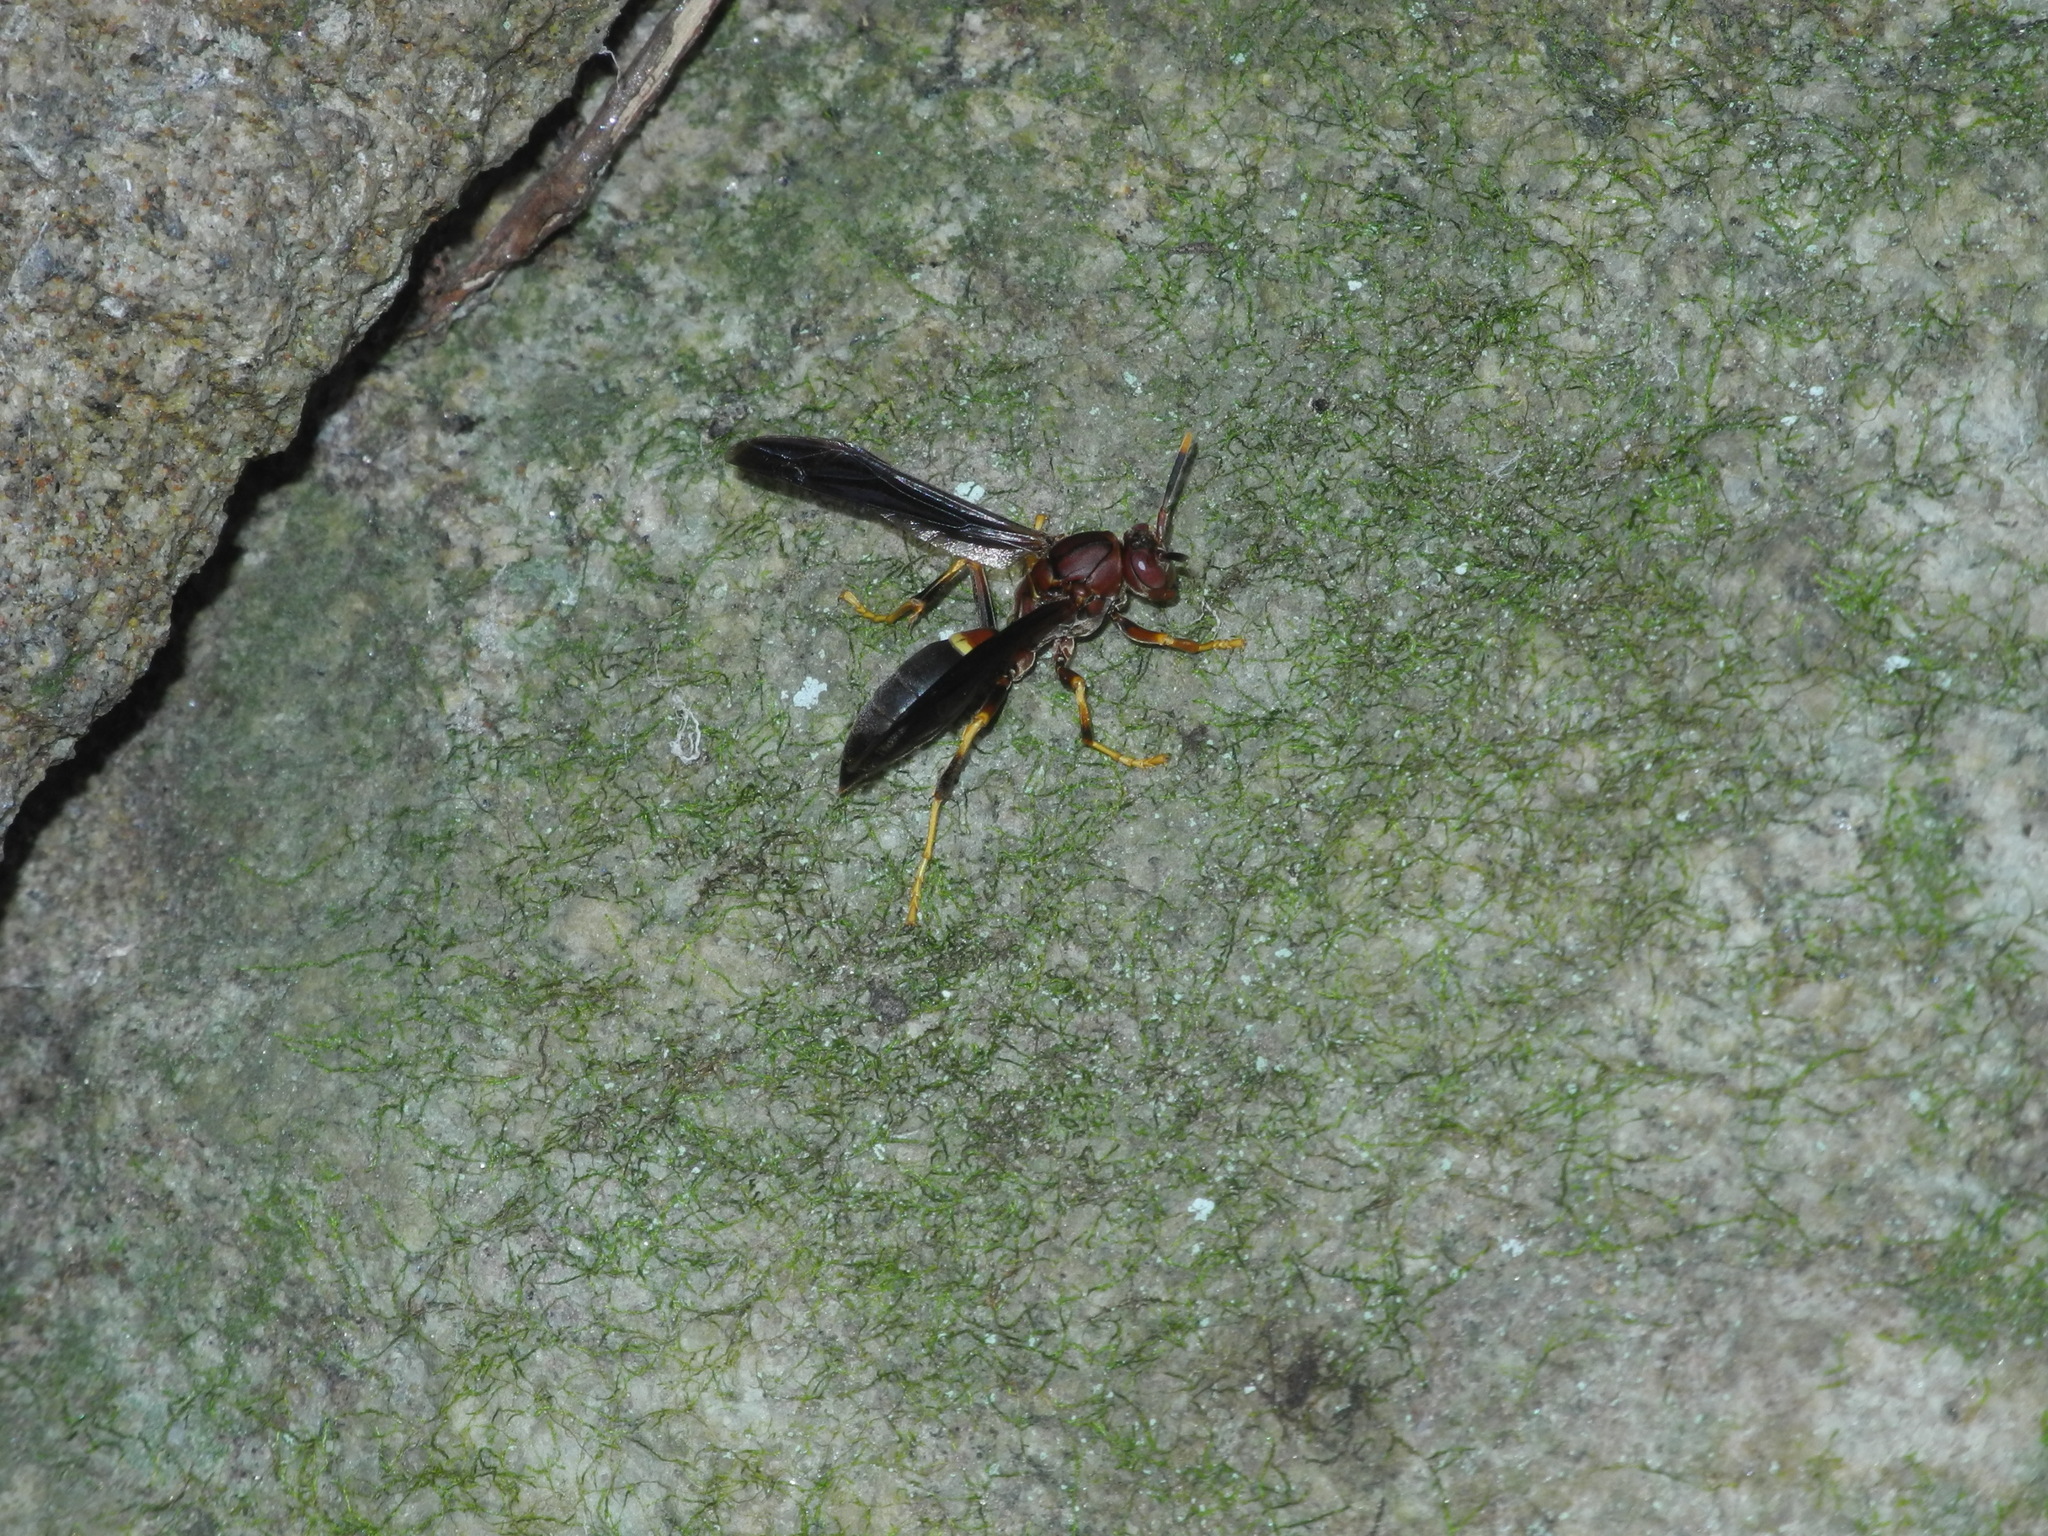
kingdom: Animalia
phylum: Arthropoda
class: Insecta
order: Hymenoptera
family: Eumenidae
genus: Polistes
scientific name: Polistes annularis
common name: Ringed paper wasp
